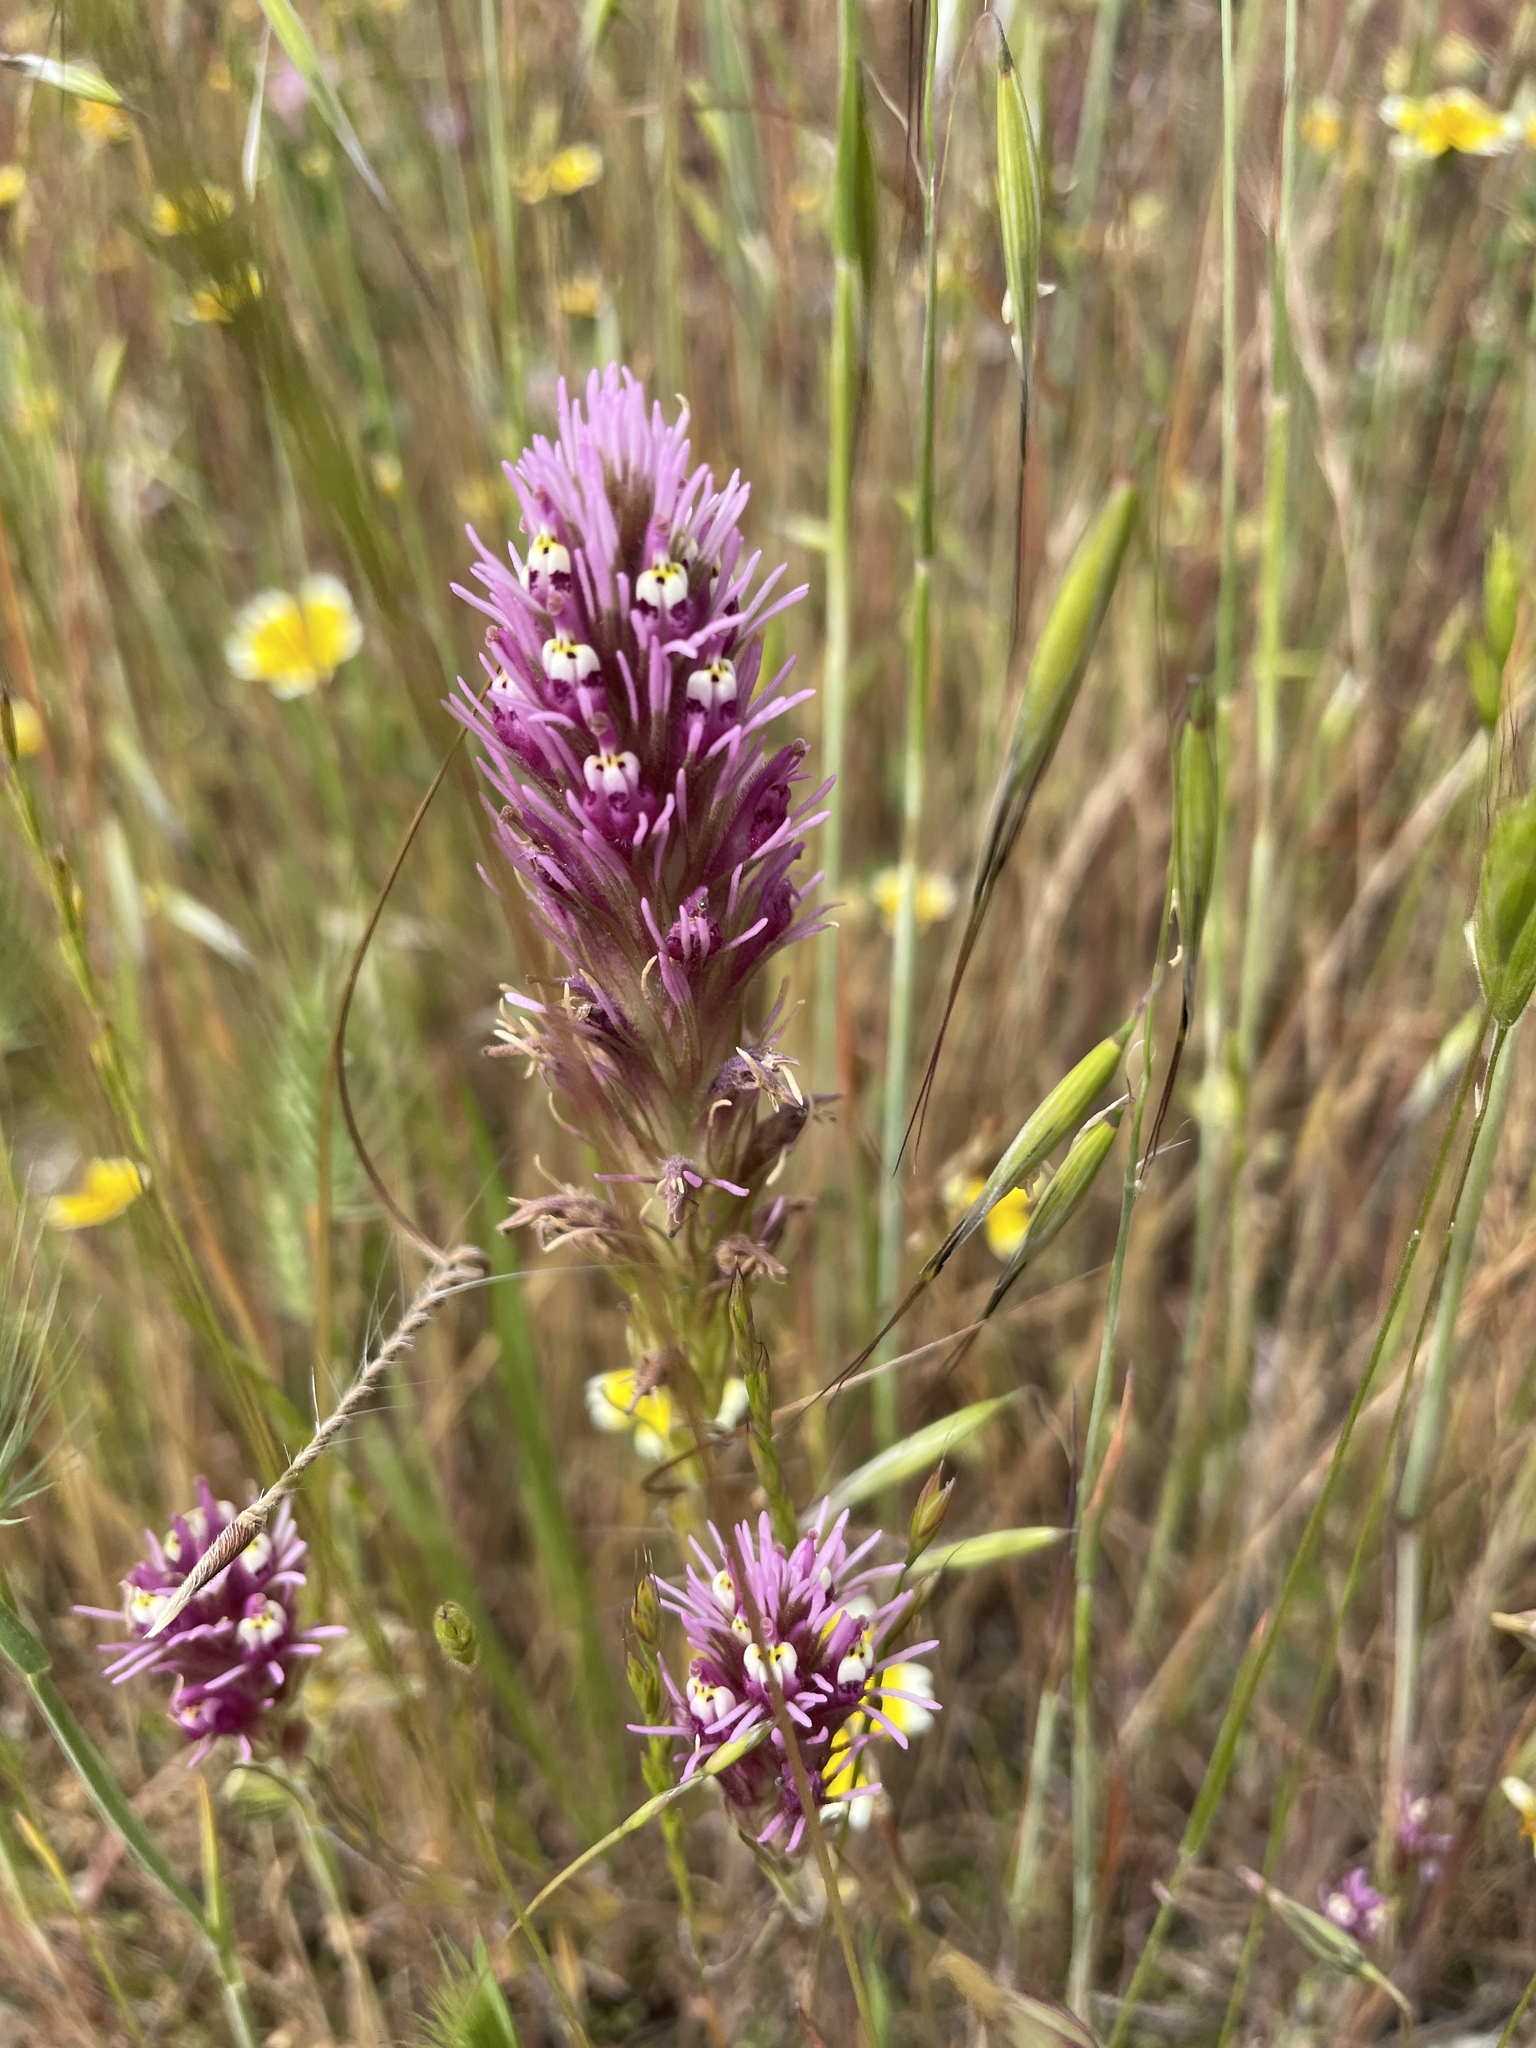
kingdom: Plantae
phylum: Tracheophyta
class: Magnoliopsida
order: Lamiales
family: Orobanchaceae
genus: Castilleja
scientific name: Castilleja densiflora
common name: Dense-flower indian paintbrush
